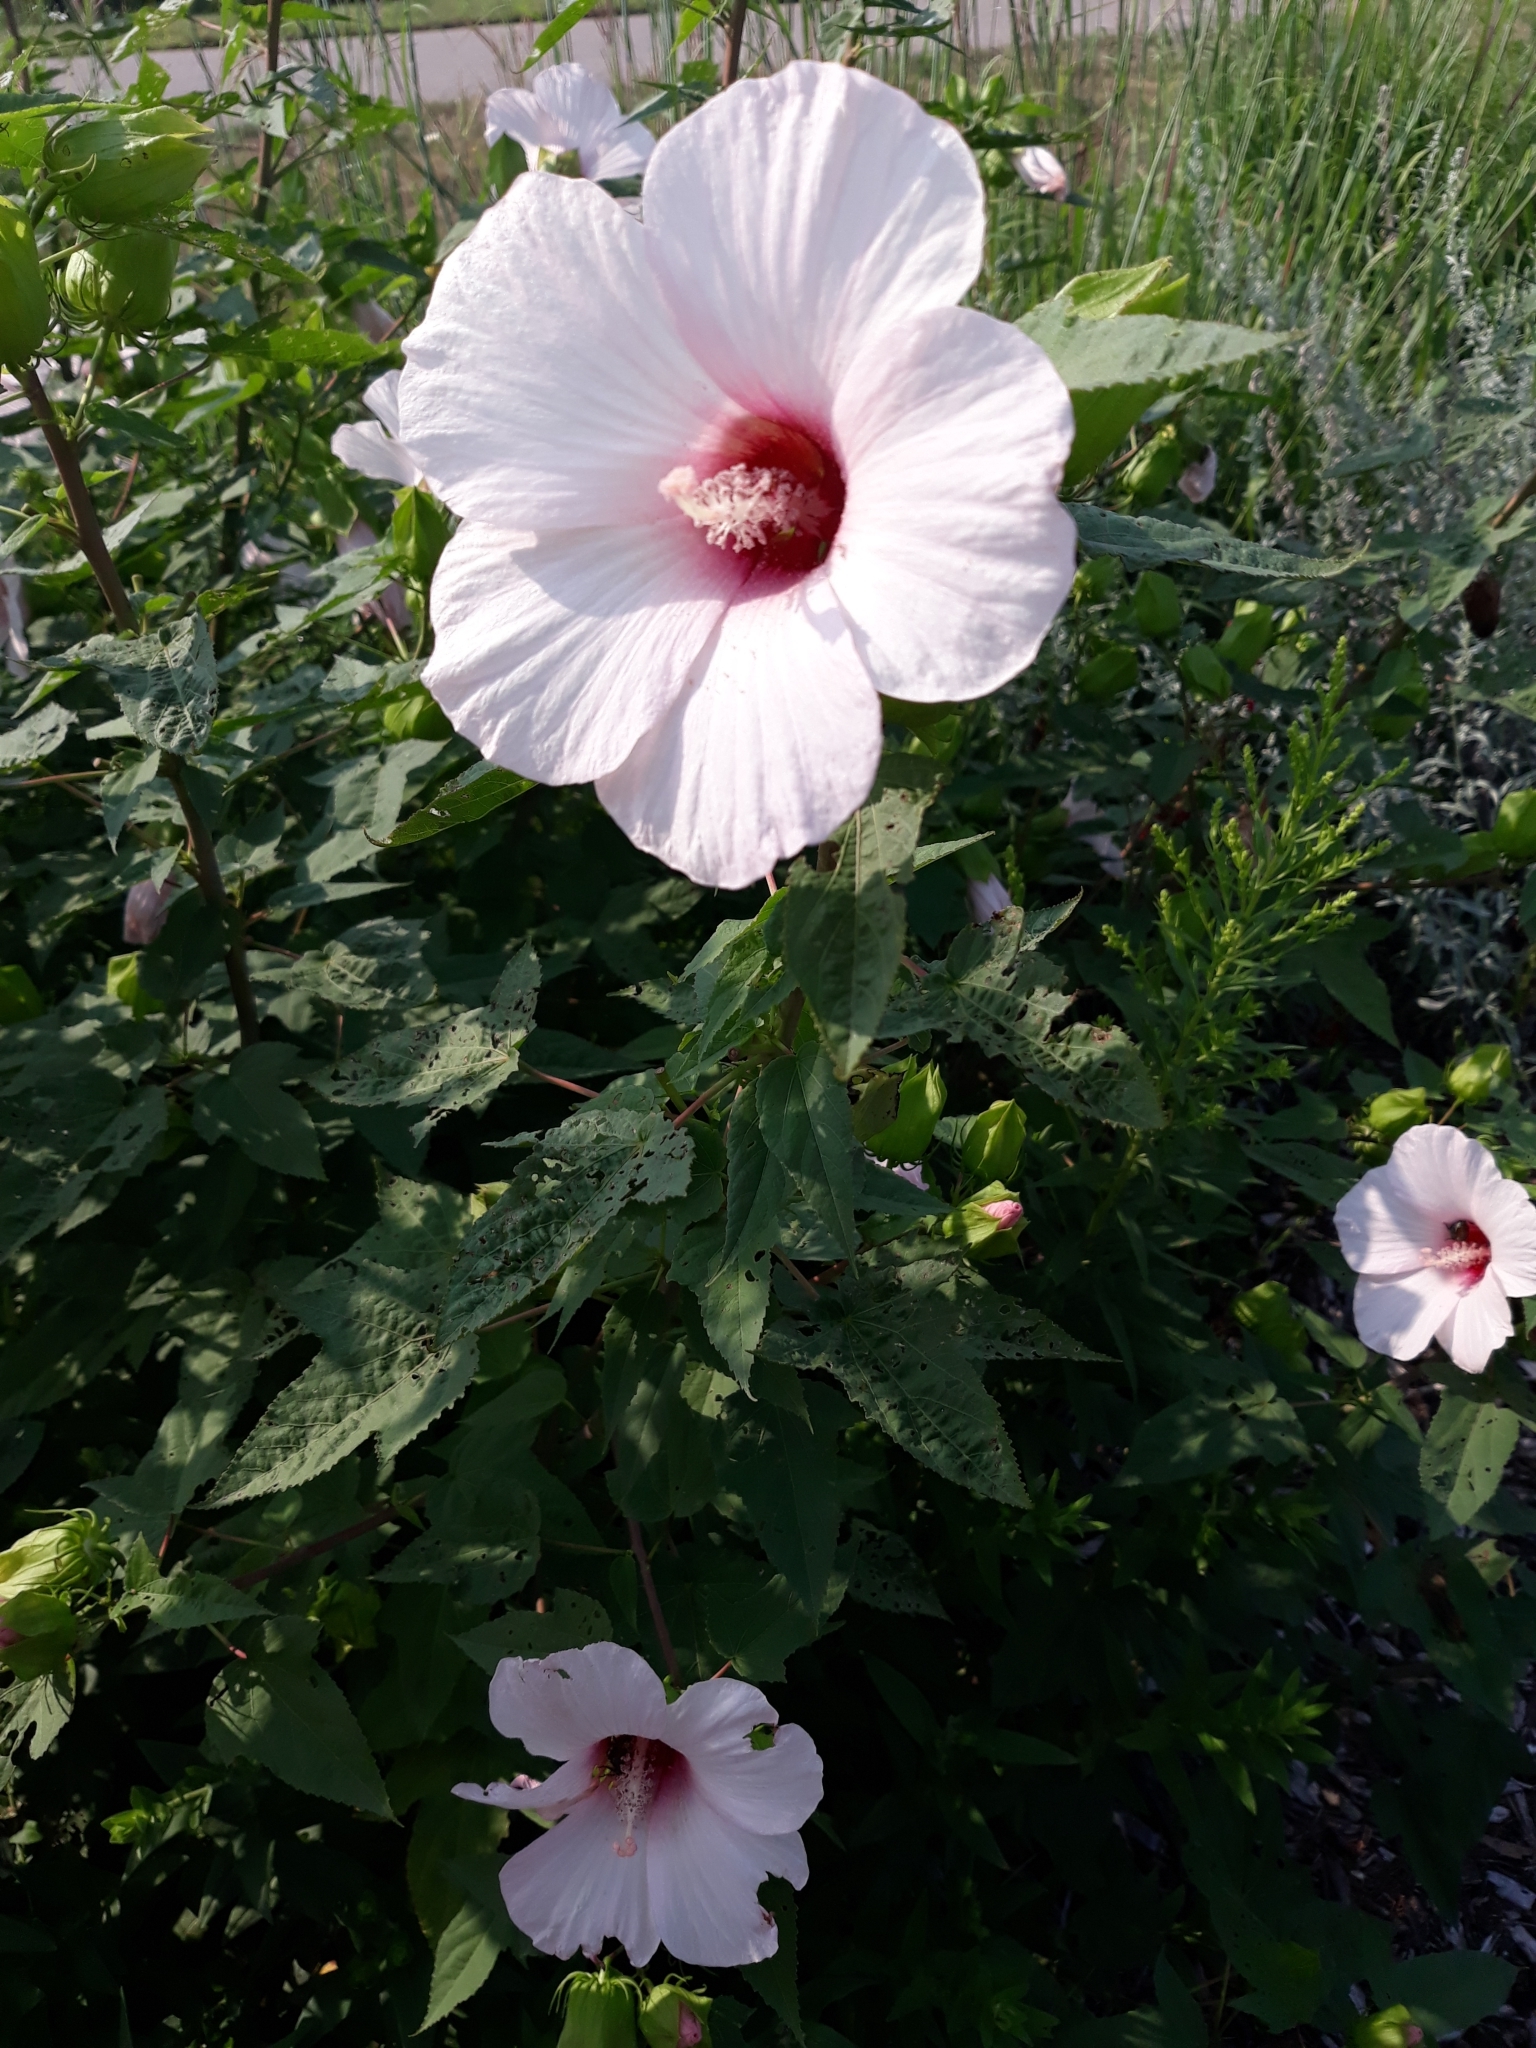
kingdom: Plantae
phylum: Tracheophyta
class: Magnoliopsida
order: Malvales
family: Malvaceae
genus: Hibiscus
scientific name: Hibiscus laevis
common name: Scarlet rose-mallow
